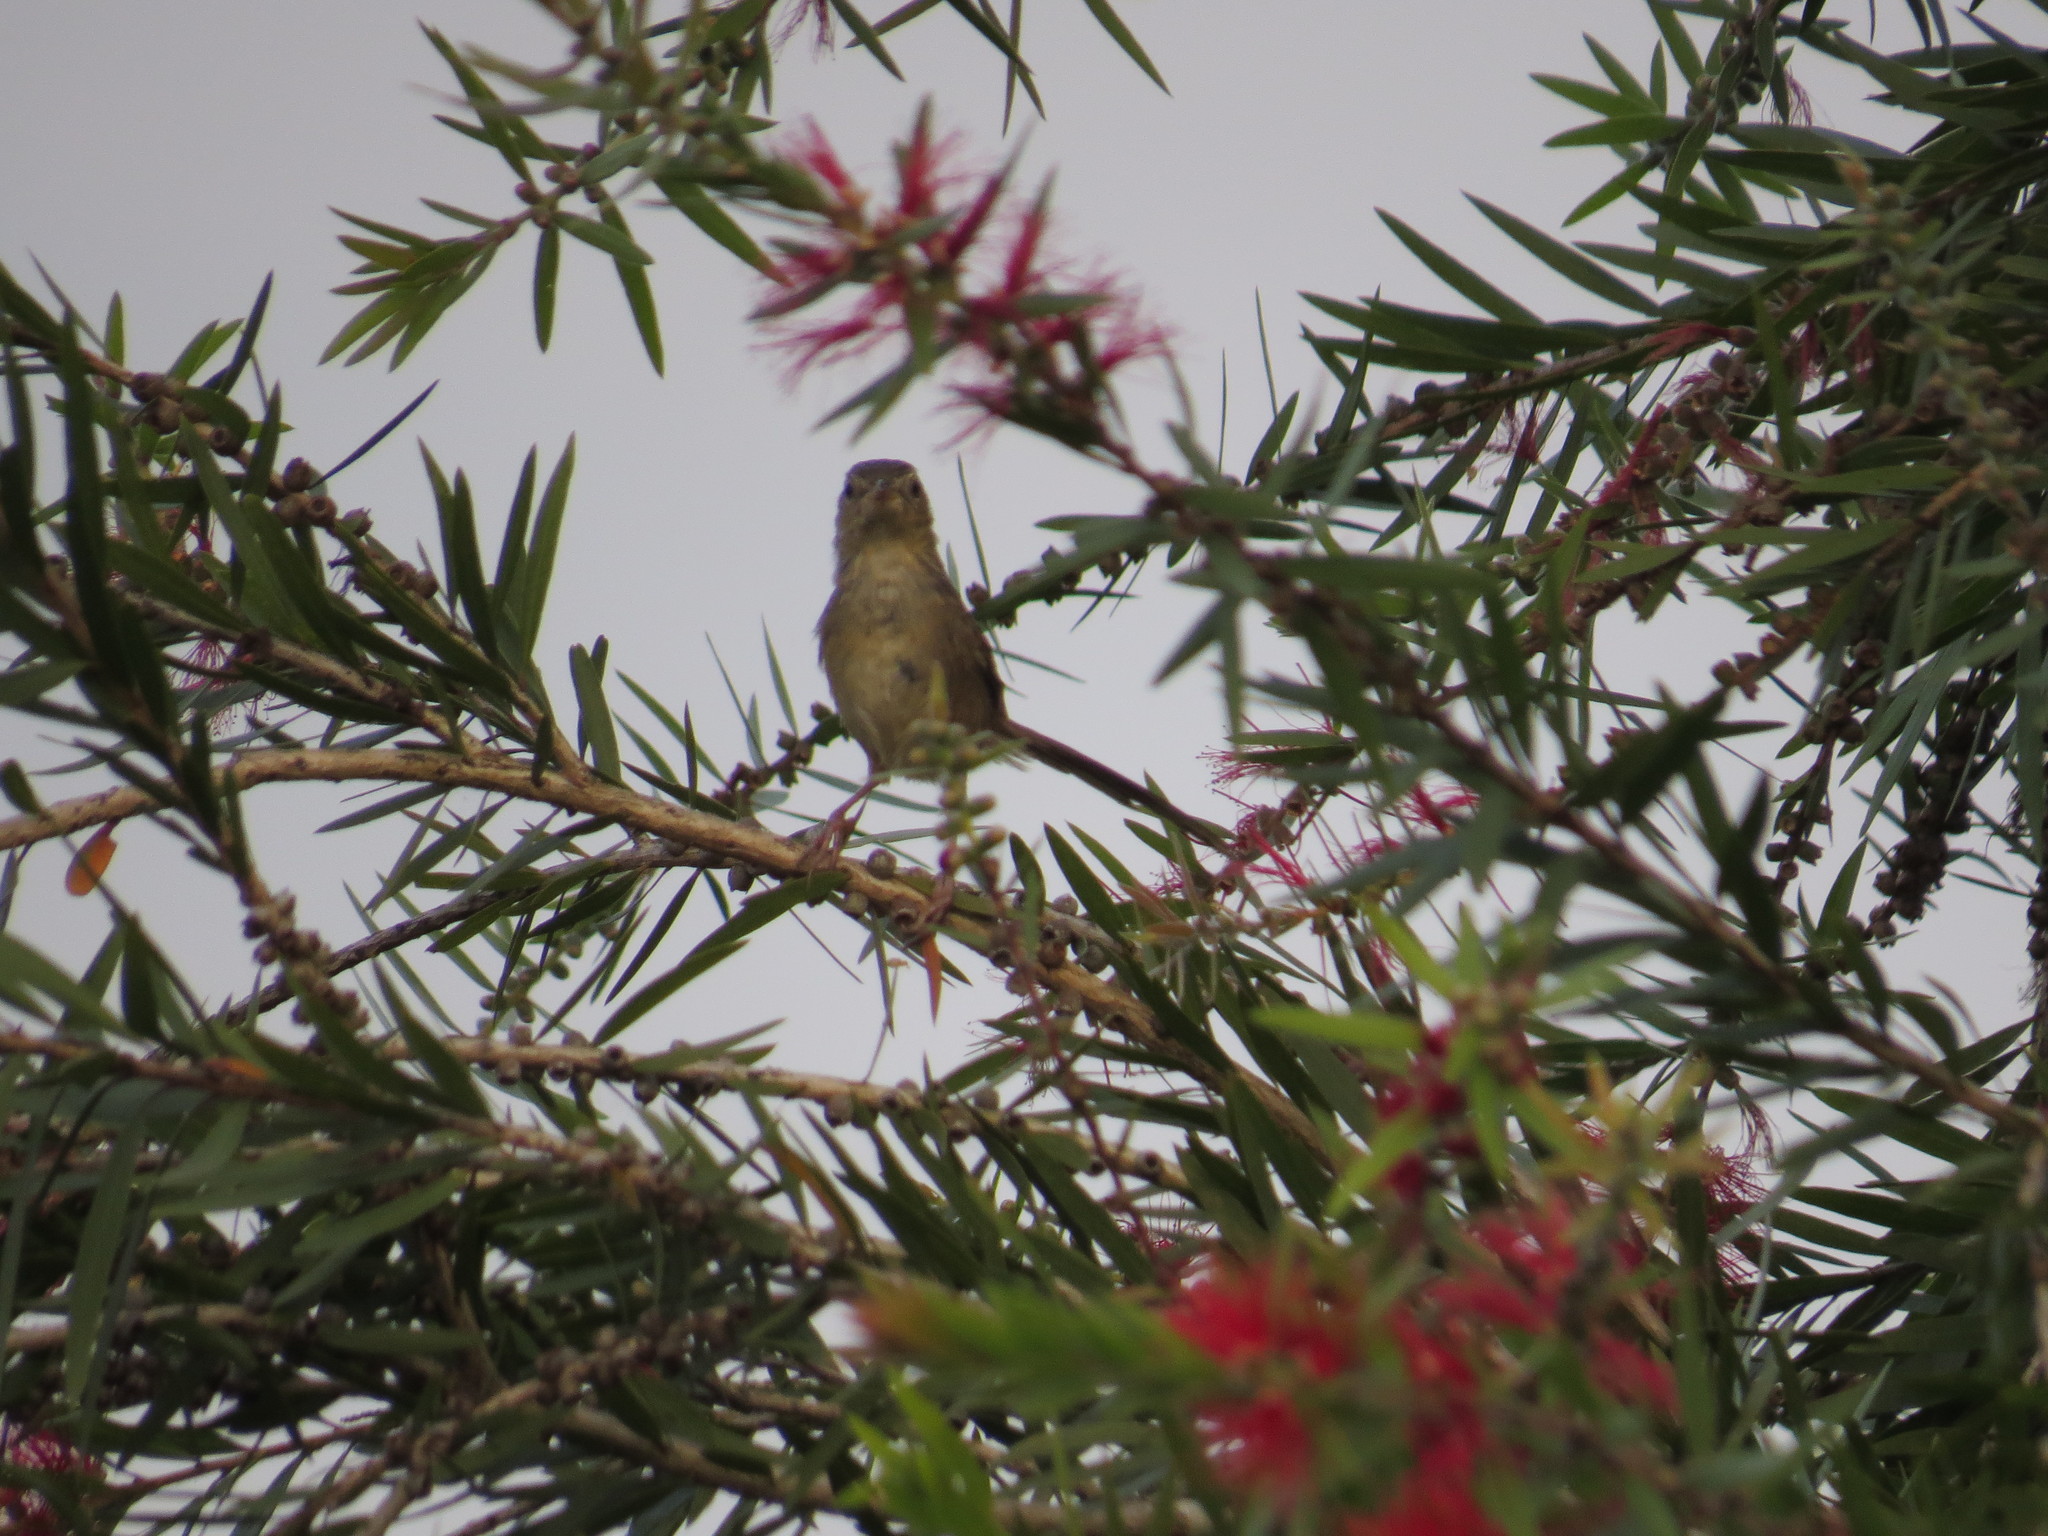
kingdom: Animalia
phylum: Chordata
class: Aves
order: Passeriformes
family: Cisticolidae
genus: Prinia
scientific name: Prinia crinigera
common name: Striated prinia
